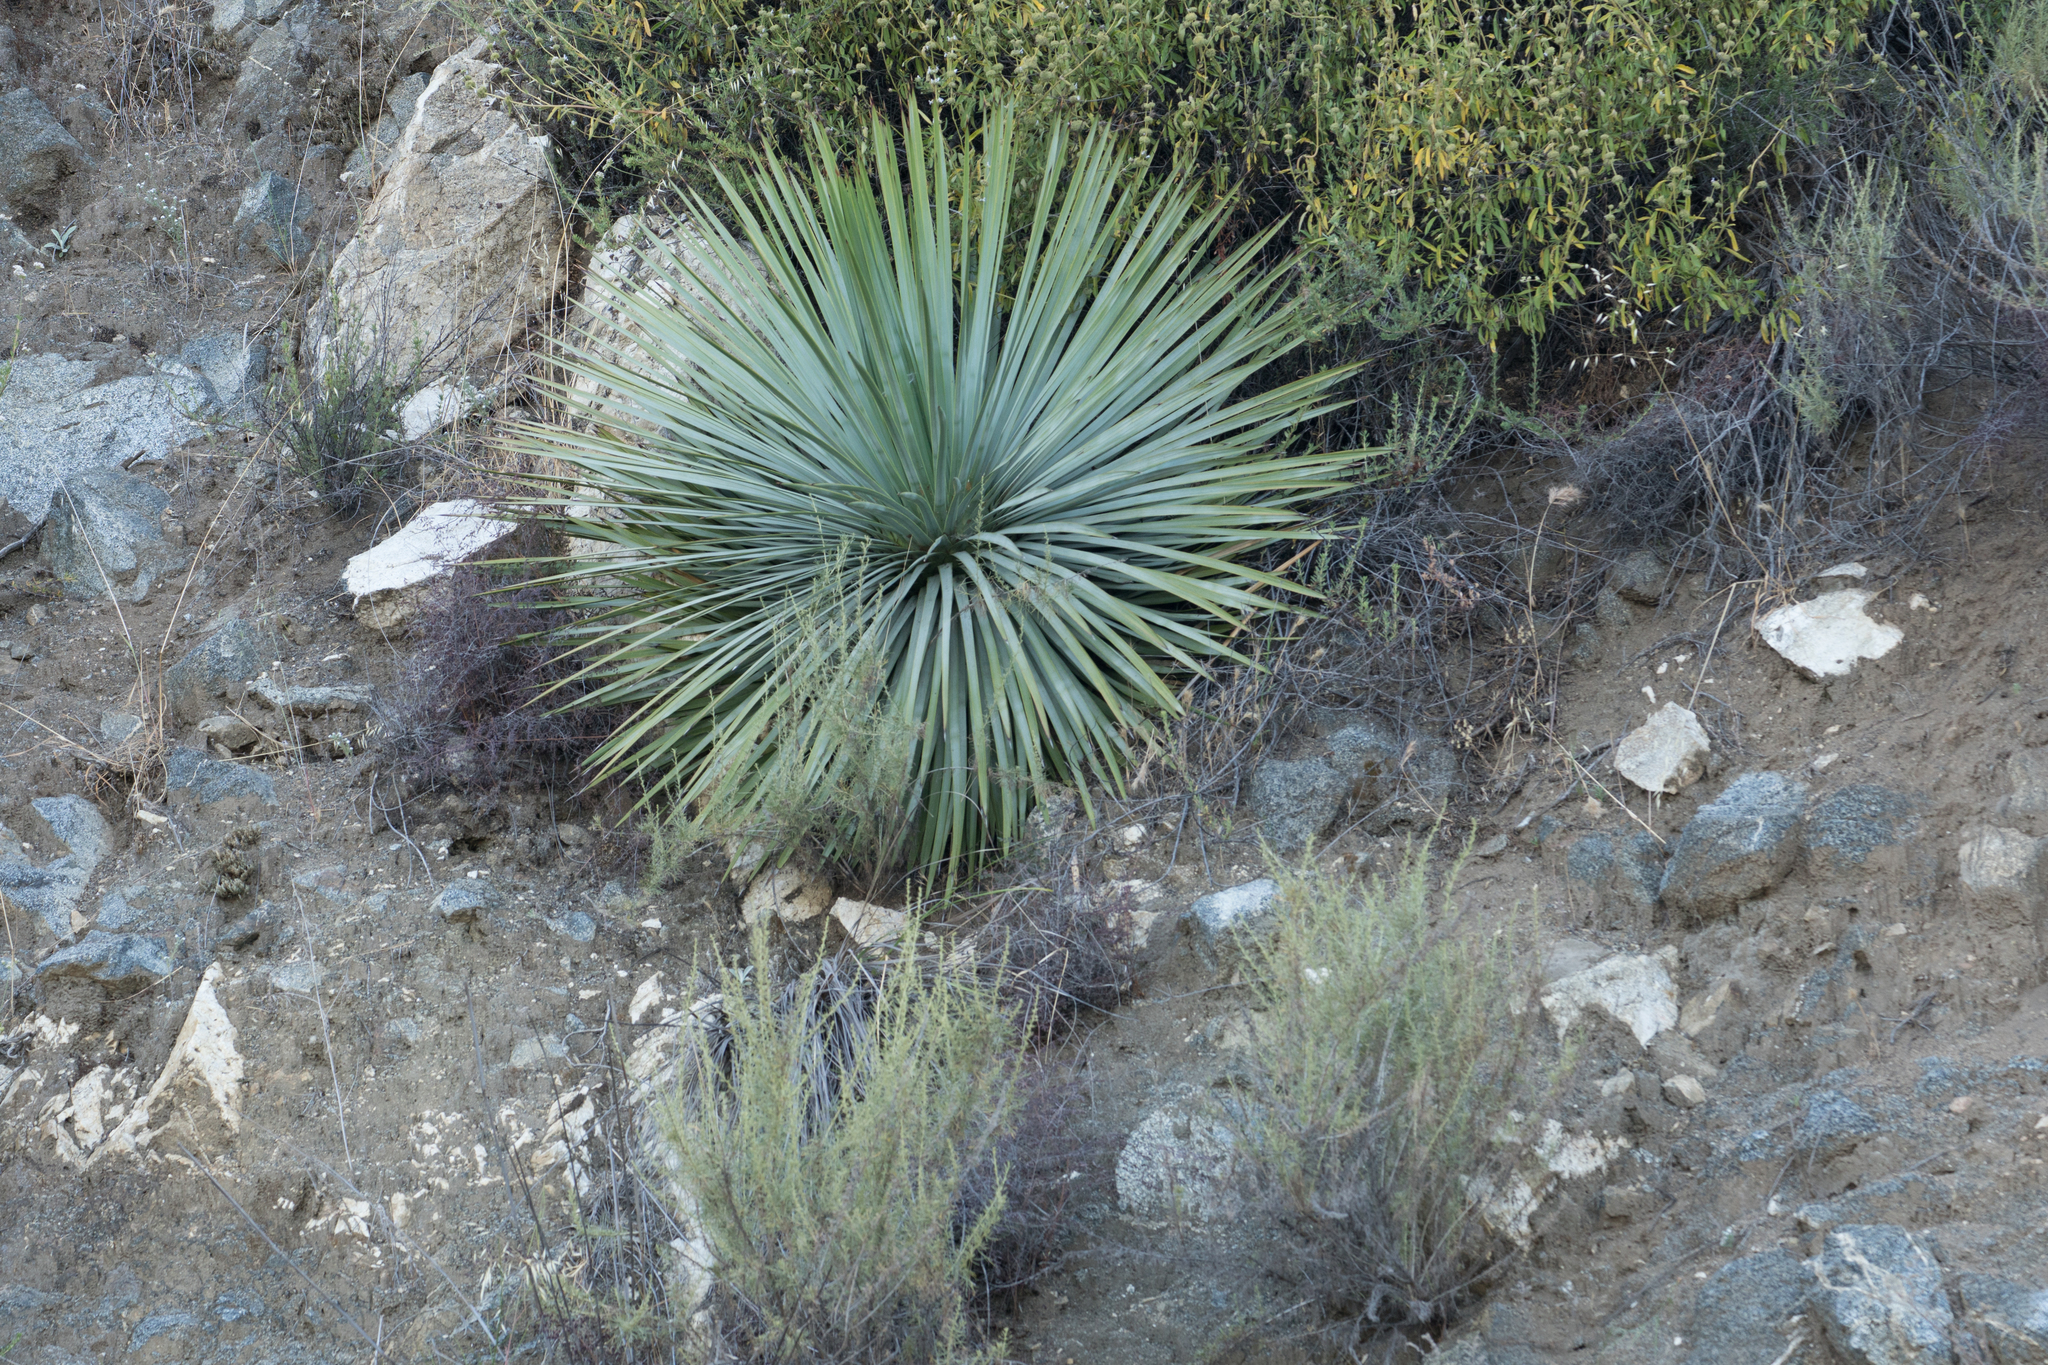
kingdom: Plantae
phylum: Tracheophyta
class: Liliopsida
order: Asparagales
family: Asparagaceae
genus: Hesperoyucca
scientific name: Hesperoyucca whipplei
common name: Our lord's-candle
